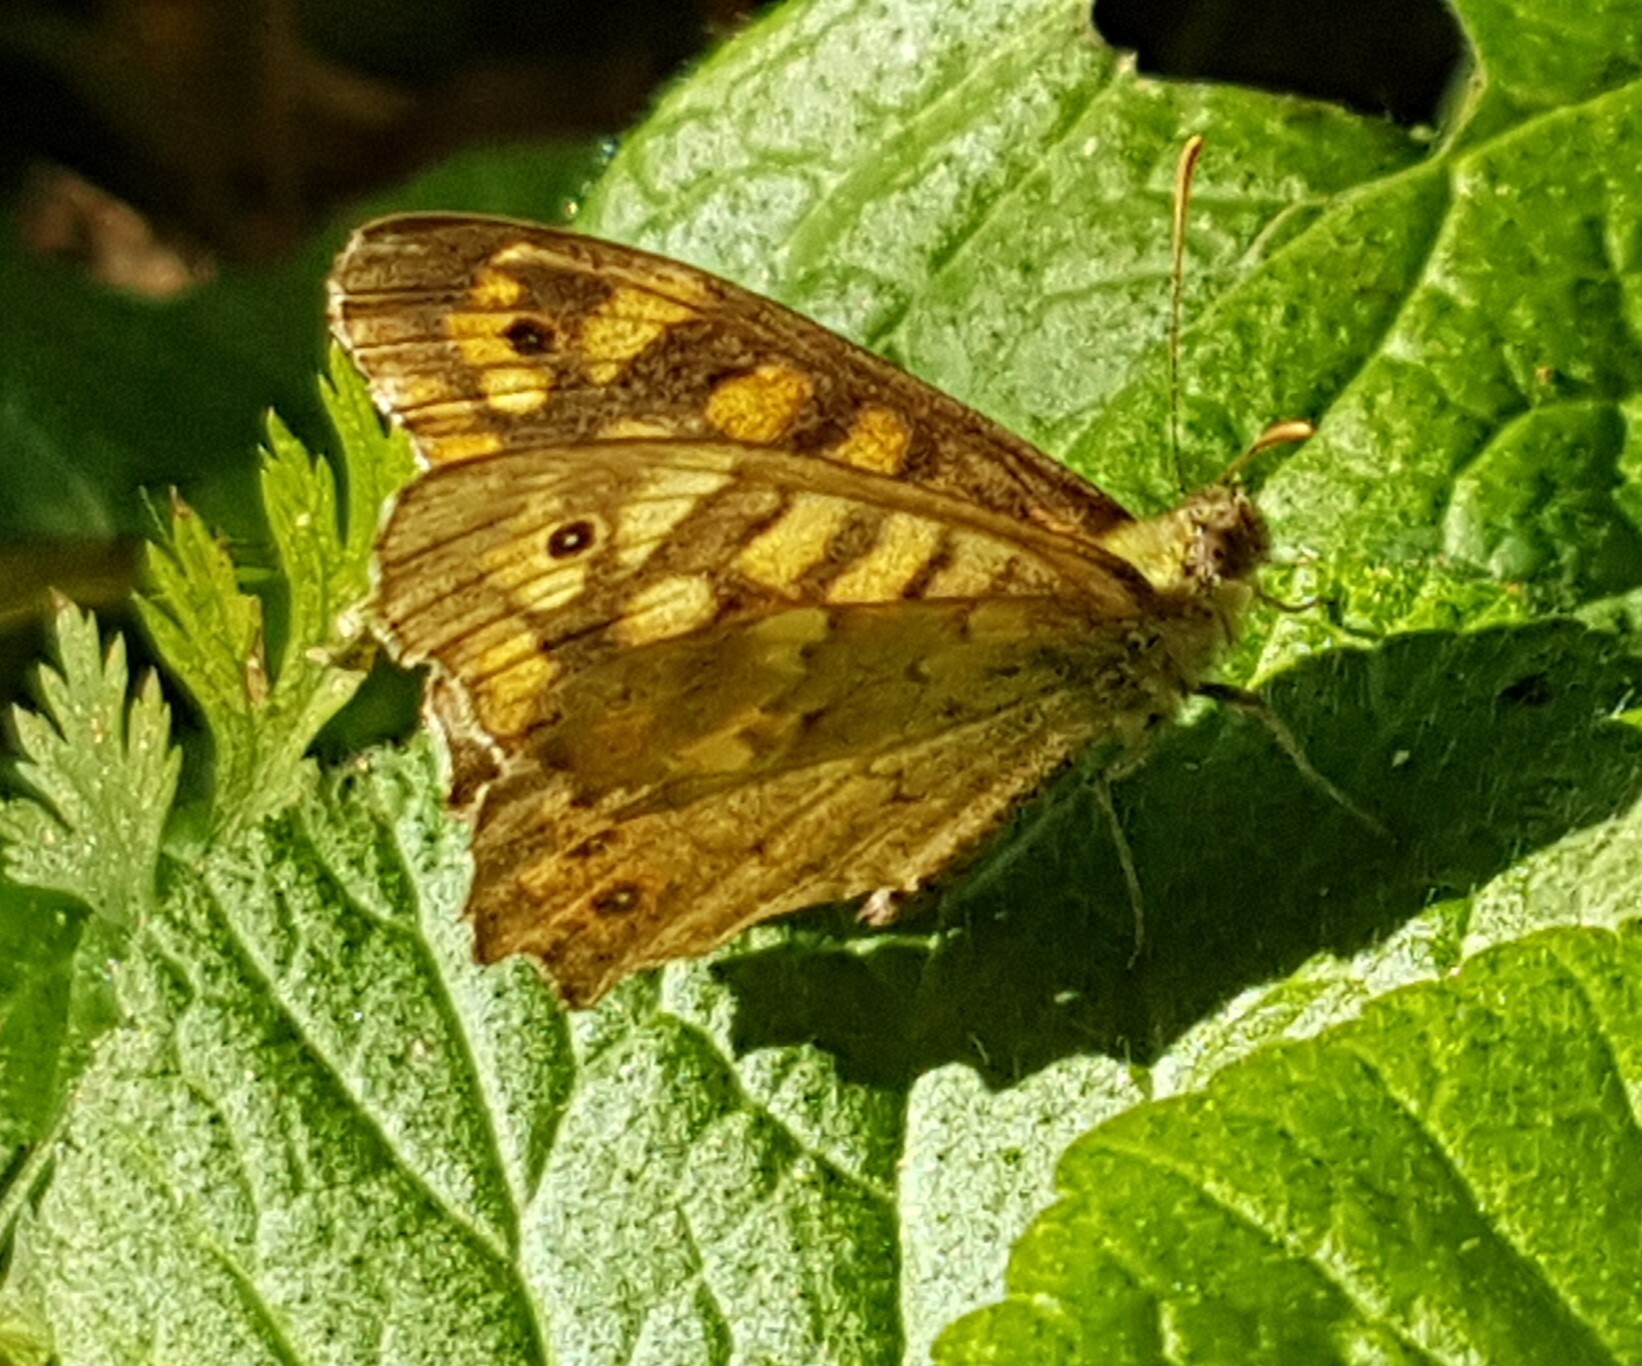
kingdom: Animalia
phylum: Arthropoda
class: Insecta
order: Lepidoptera
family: Nymphalidae
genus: Pararge
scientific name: Pararge aegeria
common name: Speckled wood
